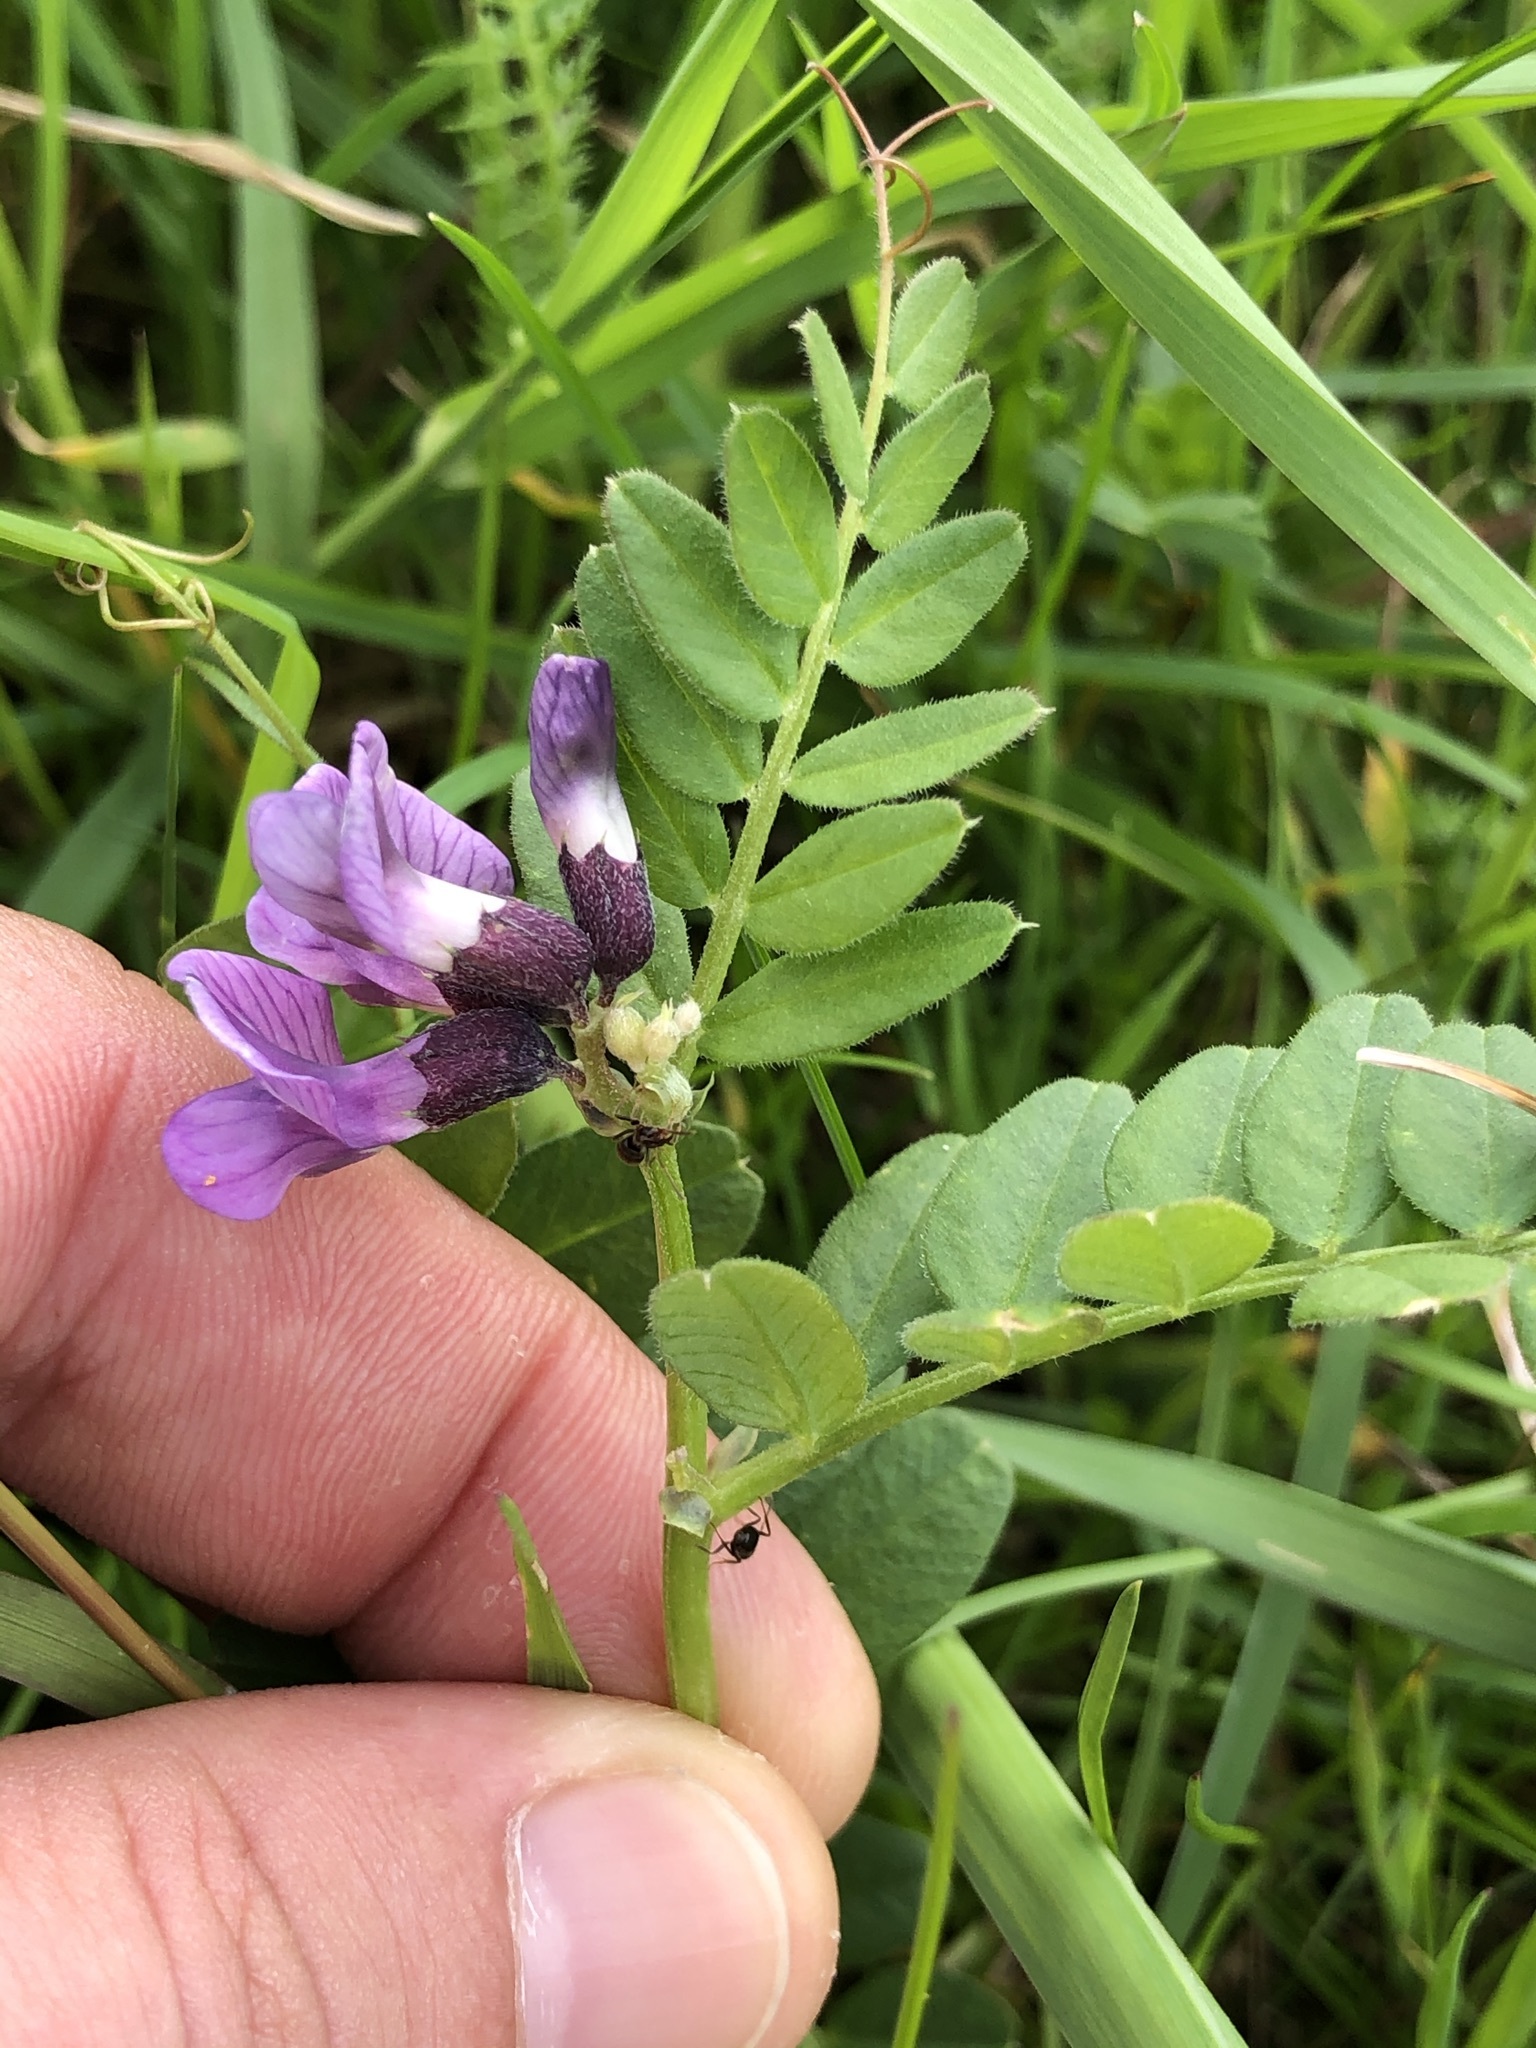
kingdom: Plantae
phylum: Tracheophyta
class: Magnoliopsida
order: Fabales
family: Fabaceae
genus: Vicia
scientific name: Vicia sepium
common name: Bush vetch
